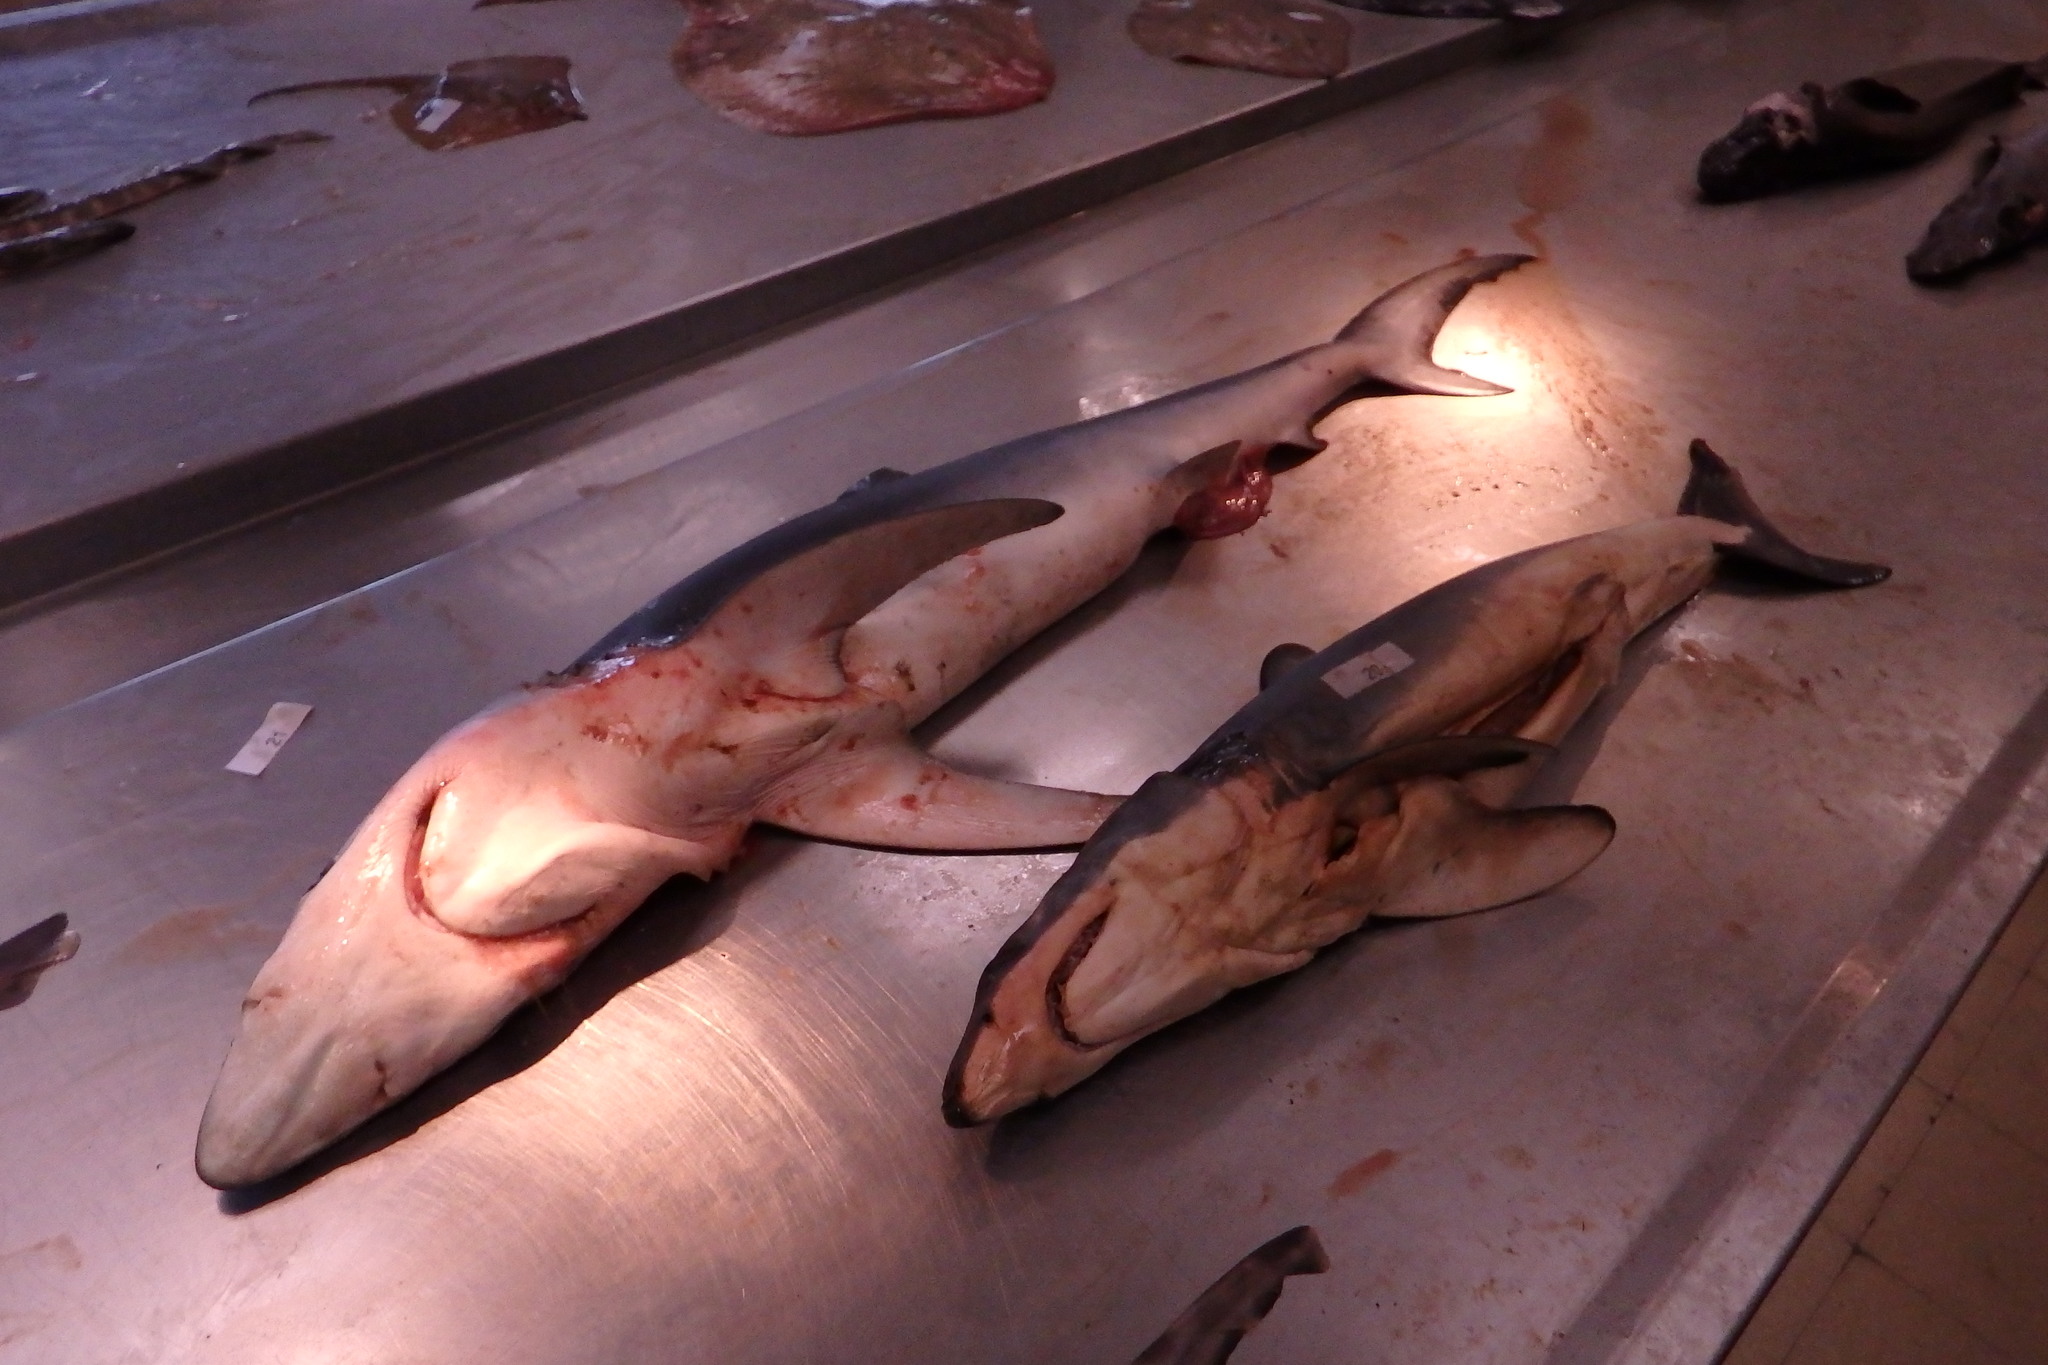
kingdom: Animalia
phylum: Chordata
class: Elasmobranchii
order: Lamniformes
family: Lamnidae
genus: Isurus
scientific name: Isurus oxyrinchus
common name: Shortfin mako
